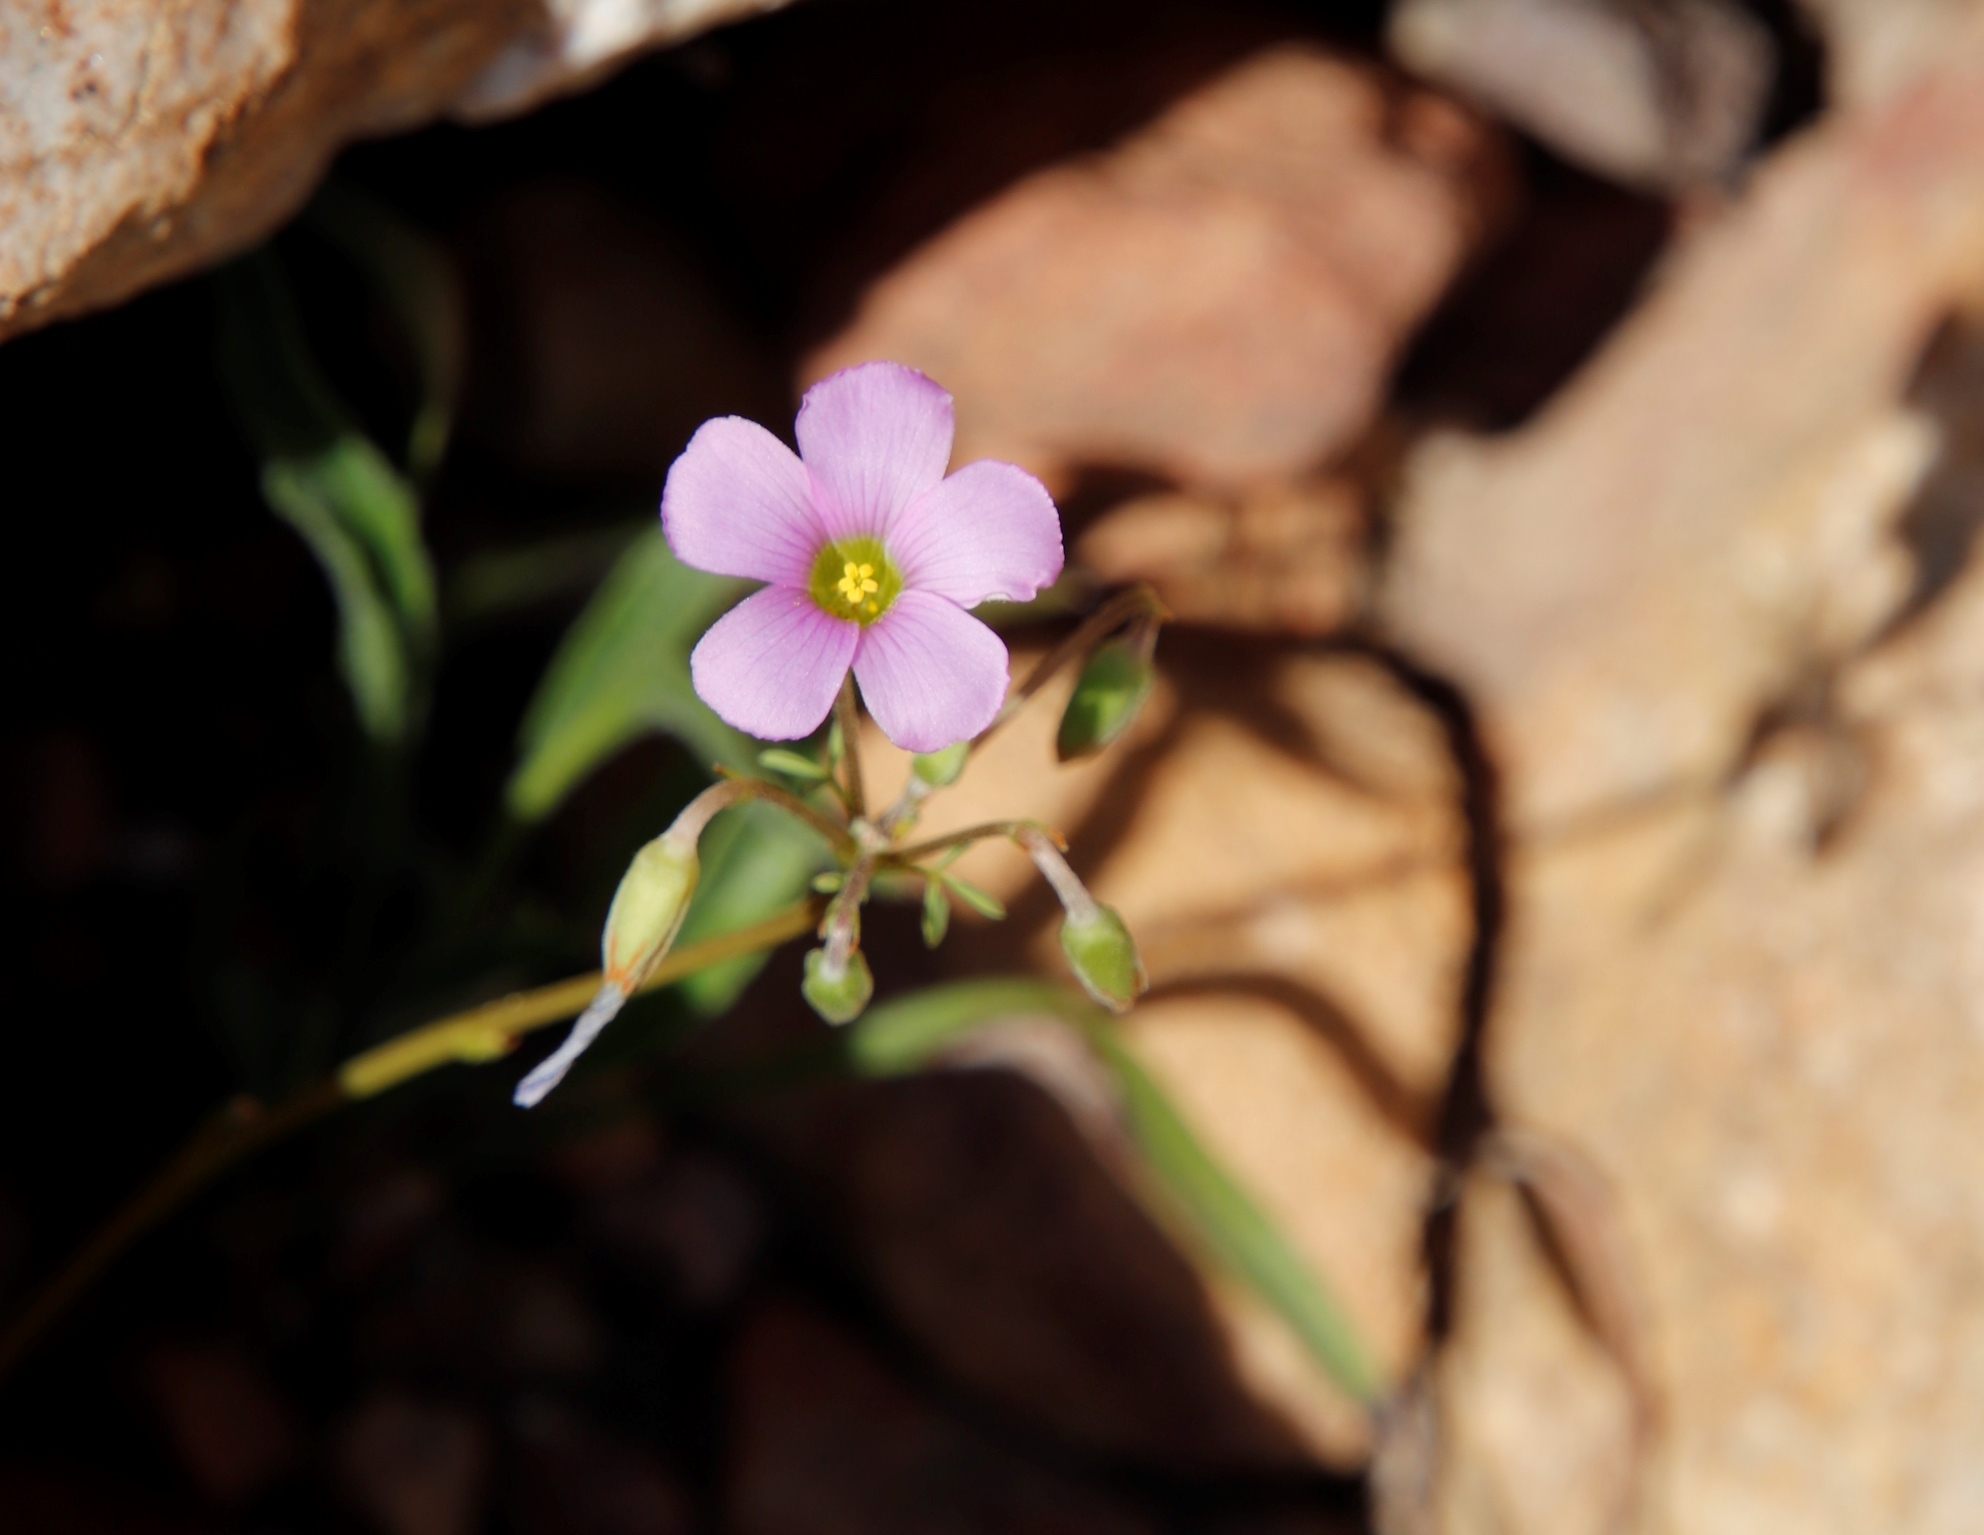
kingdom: Plantae
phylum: Tracheophyta
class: Magnoliopsida
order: Oxalidales
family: Oxalidaceae
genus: Oxalis
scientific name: Oxalis bifida
